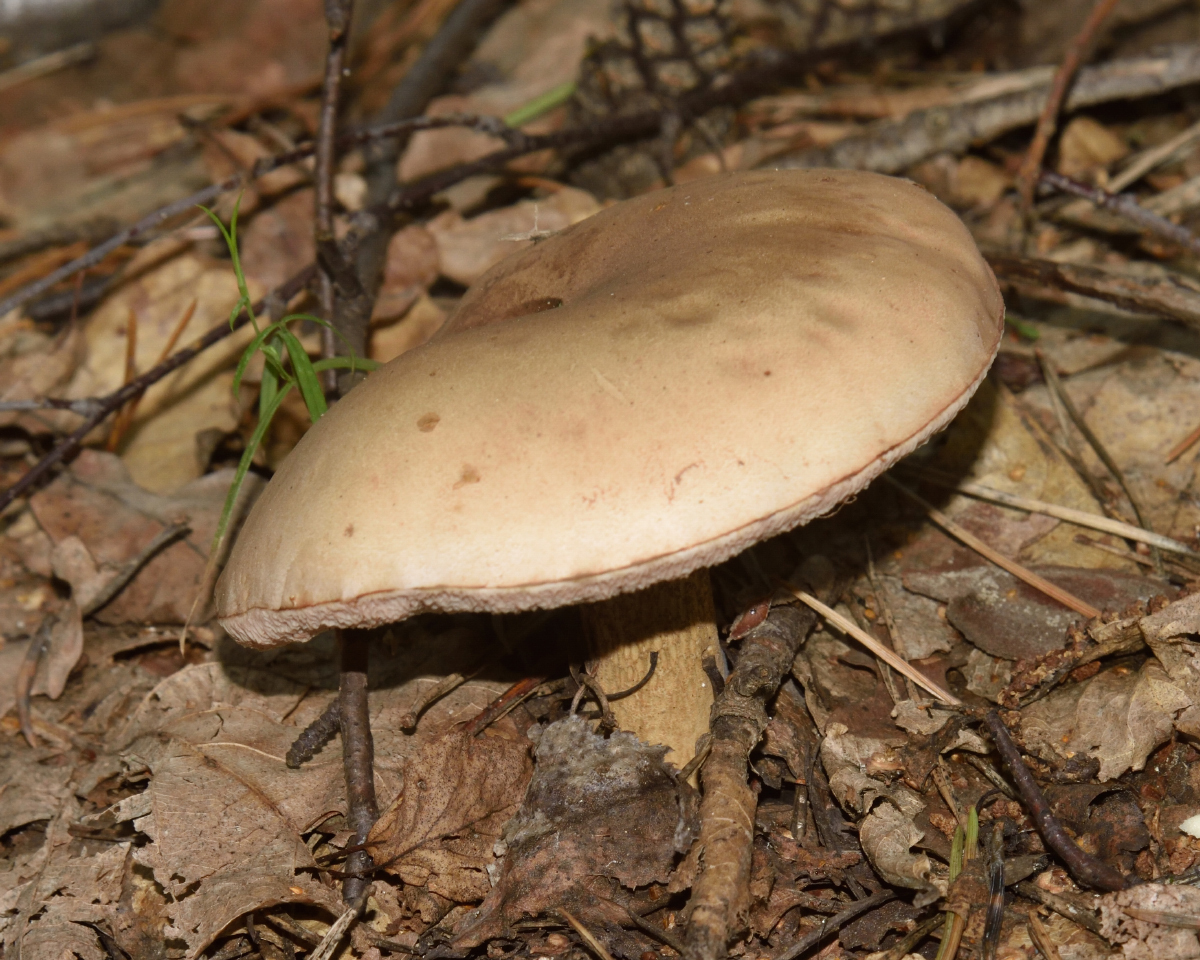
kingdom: Fungi
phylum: Basidiomycota
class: Agaricomycetes
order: Boletales
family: Boletaceae
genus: Tylopilus
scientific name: Tylopilus felleus
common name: Bitter bolete
